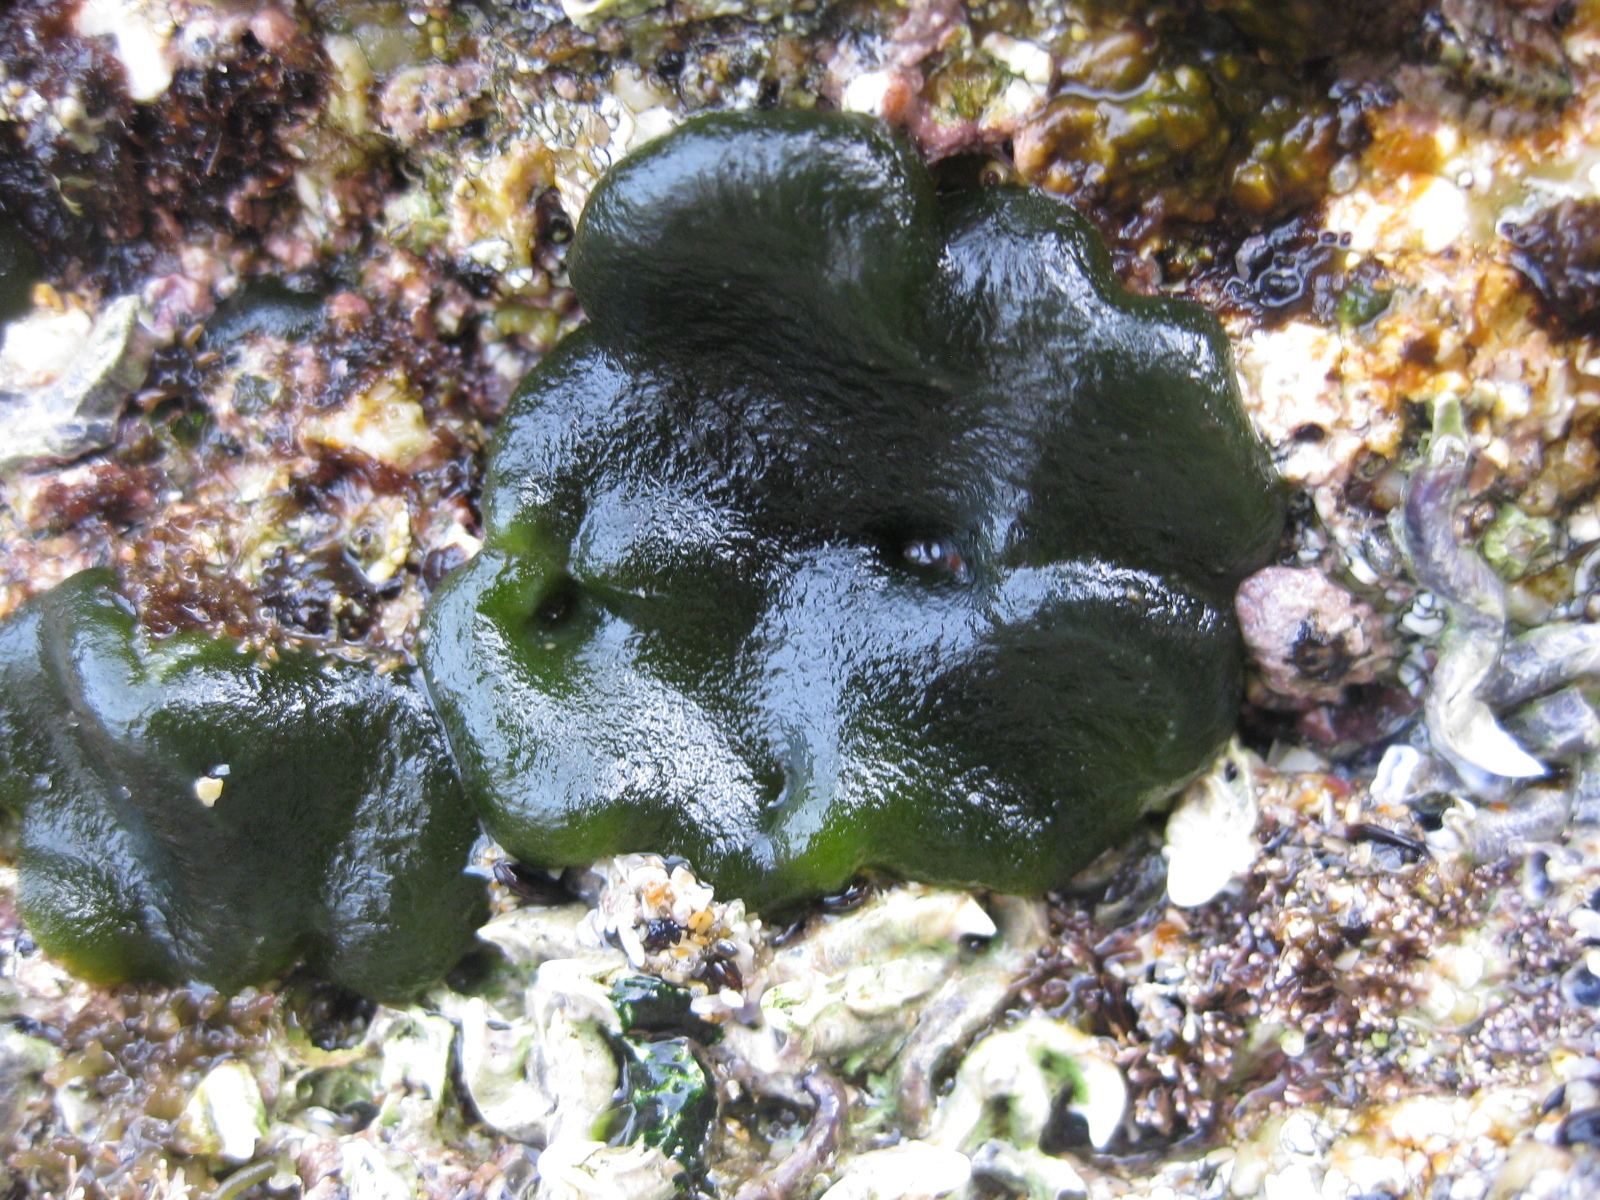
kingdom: Plantae
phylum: Chlorophyta
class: Ulvophyceae
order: Bryopsidales
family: Codiaceae
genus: Codium
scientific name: Codium convolutum
